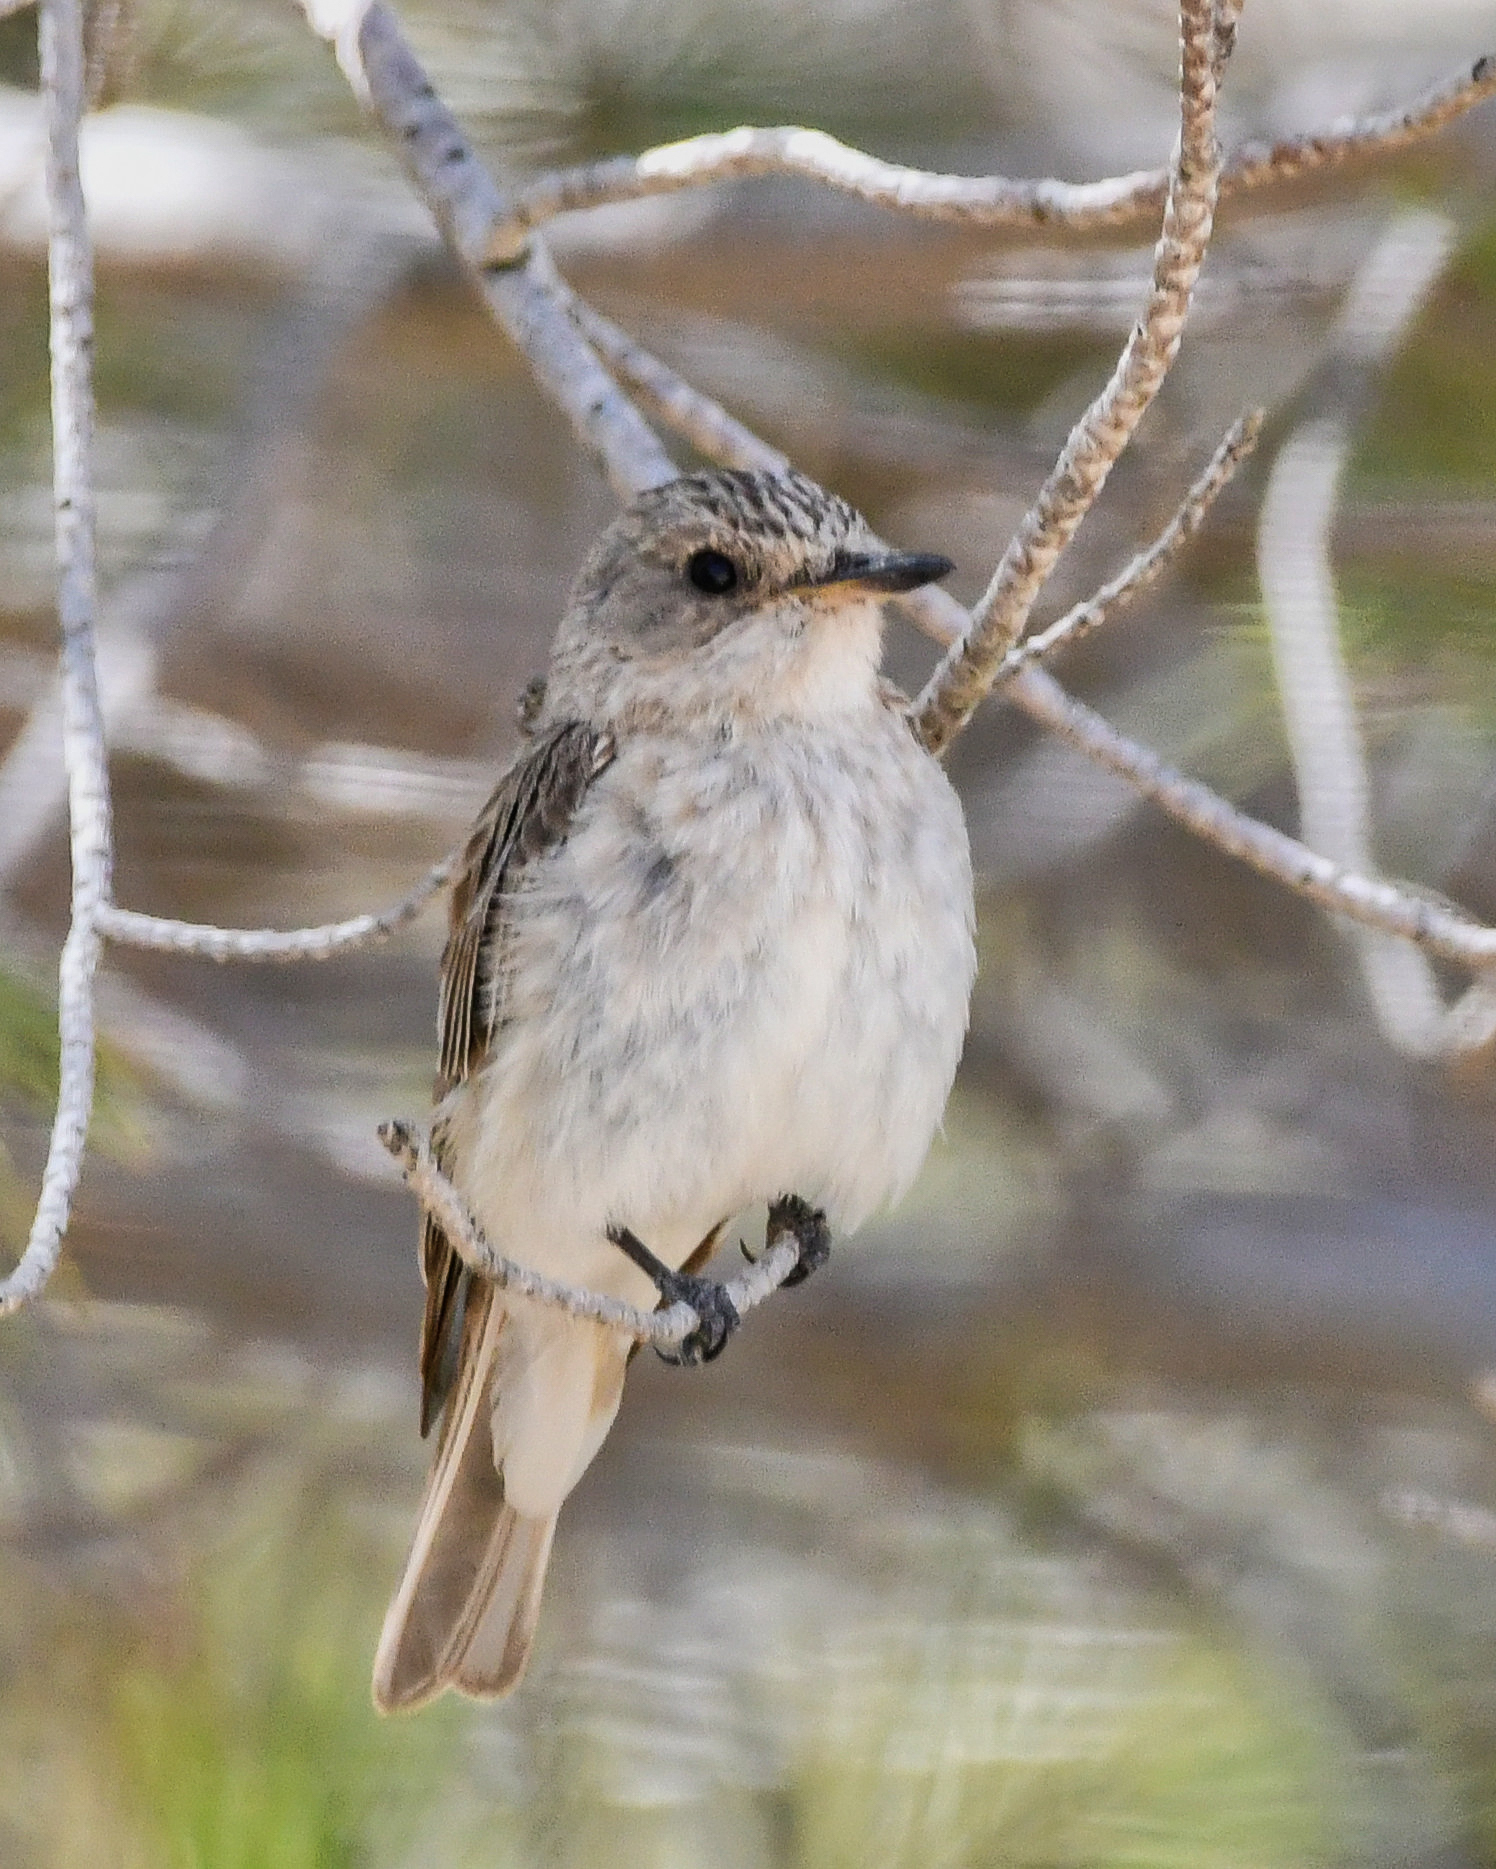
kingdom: Animalia
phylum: Chordata
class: Aves
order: Passeriformes
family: Muscicapidae
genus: Muscicapa
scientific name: Muscicapa striata
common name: Spotted flycatcher
